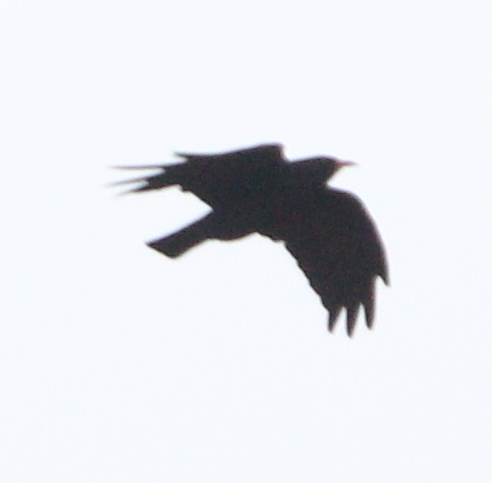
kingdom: Animalia
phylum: Chordata
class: Aves
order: Passeriformes
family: Corvidae
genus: Pyrrhocorax
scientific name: Pyrrhocorax pyrrhocorax
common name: Red-billed chough
